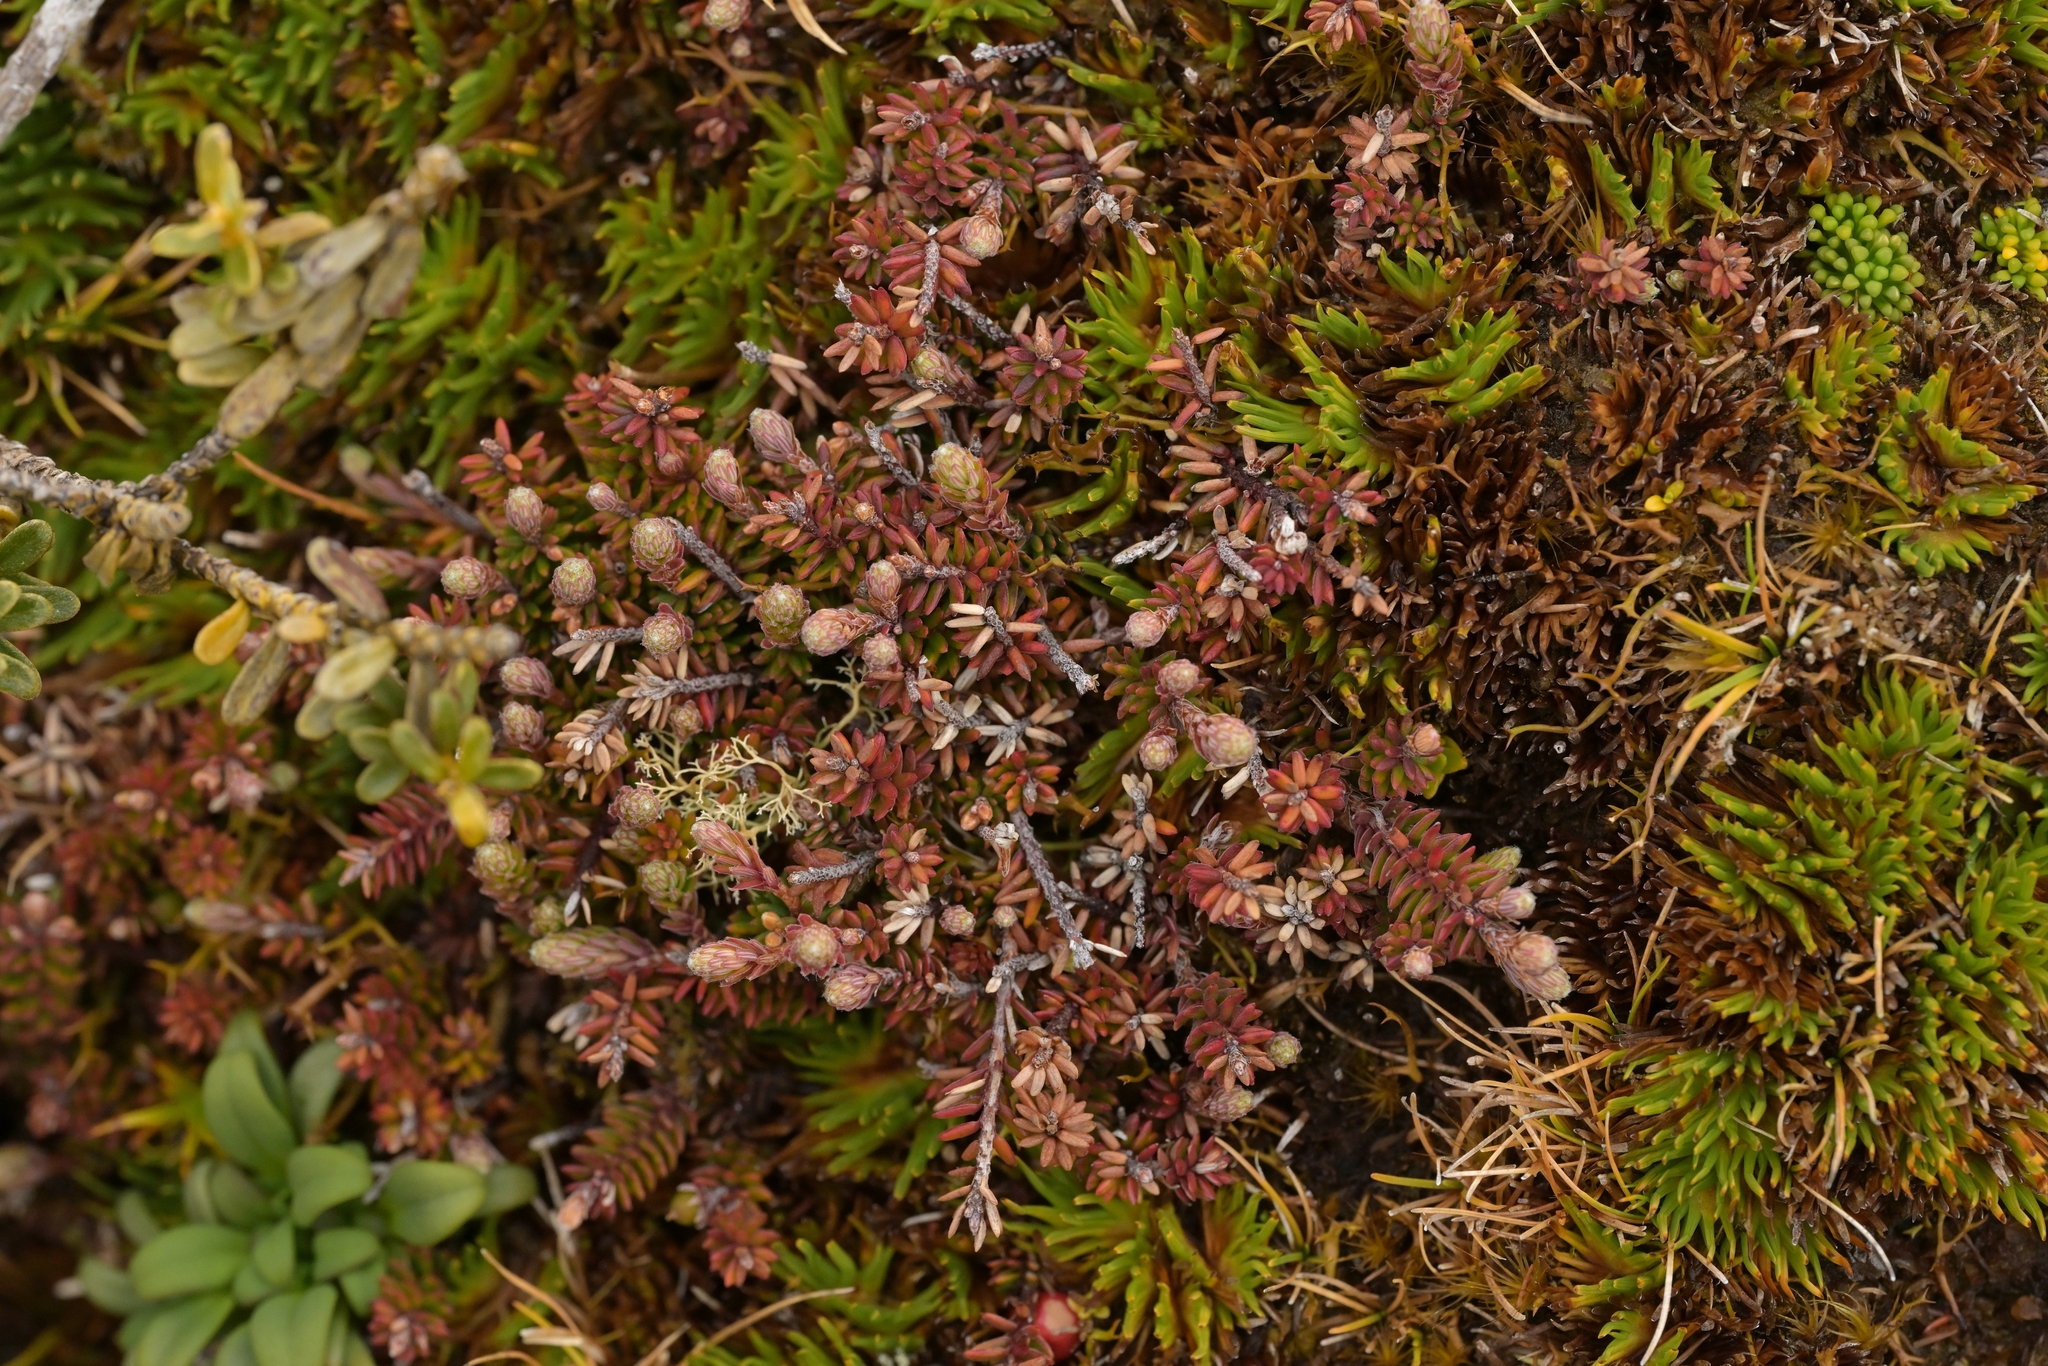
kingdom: Plantae
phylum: Tracheophyta
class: Magnoliopsida
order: Ericales
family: Ericaceae
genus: Androstoma
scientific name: Androstoma empetrifolia
